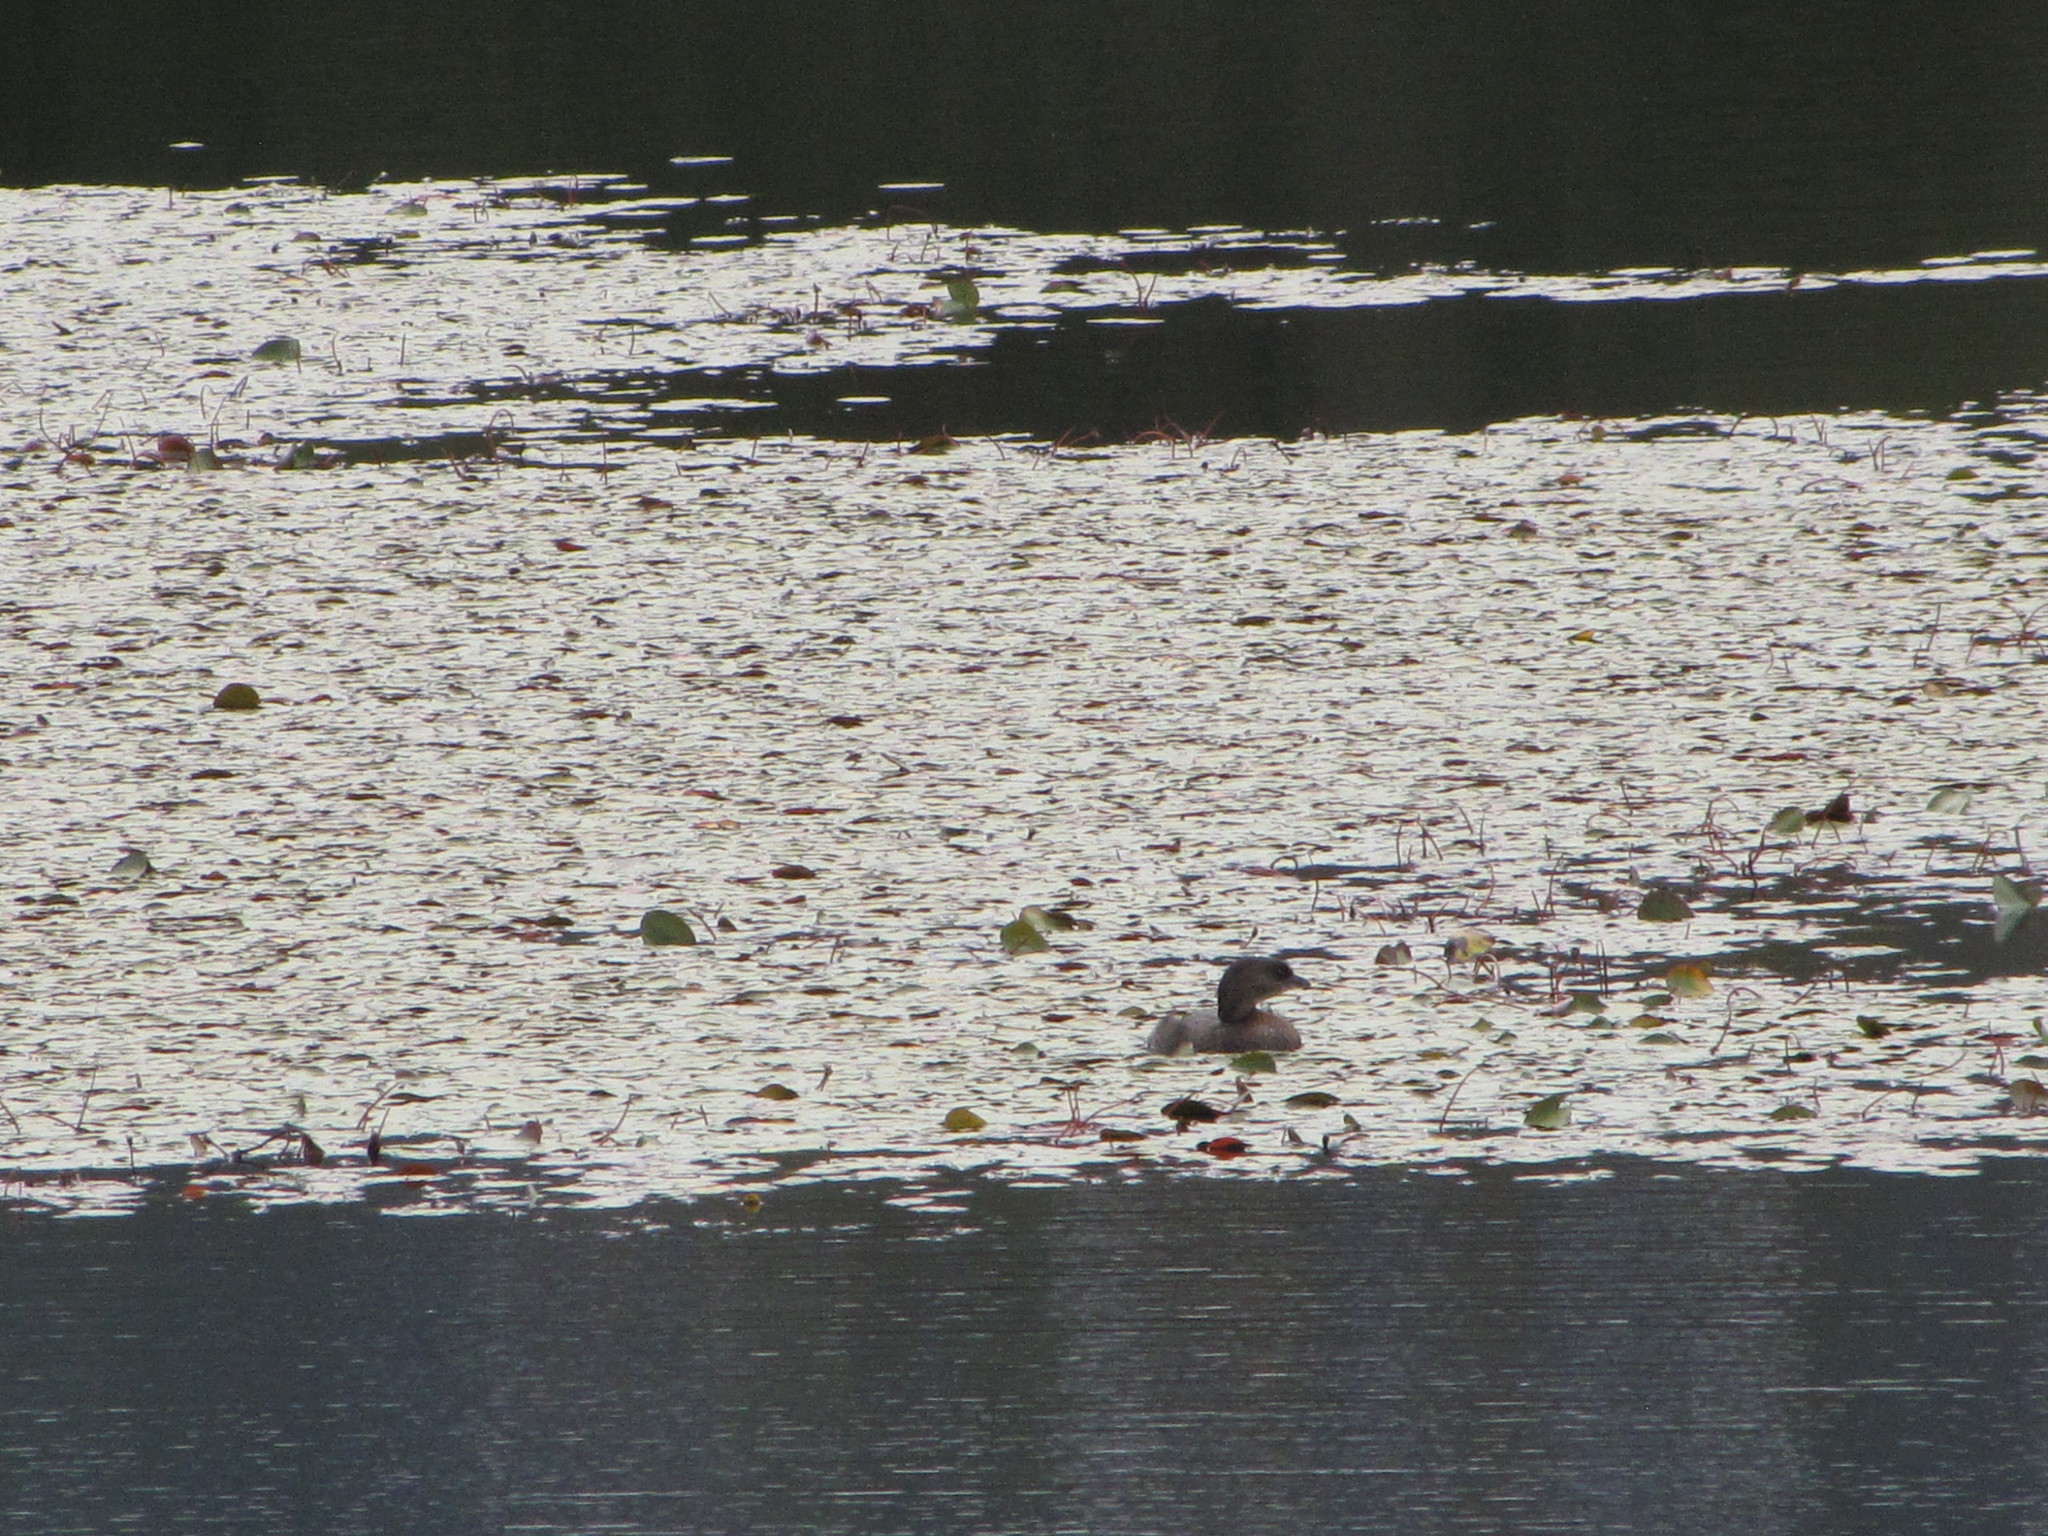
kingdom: Animalia
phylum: Chordata
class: Aves
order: Podicipediformes
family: Podicipedidae
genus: Podilymbus
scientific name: Podilymbus podiceps
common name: Pied-billed grebe
